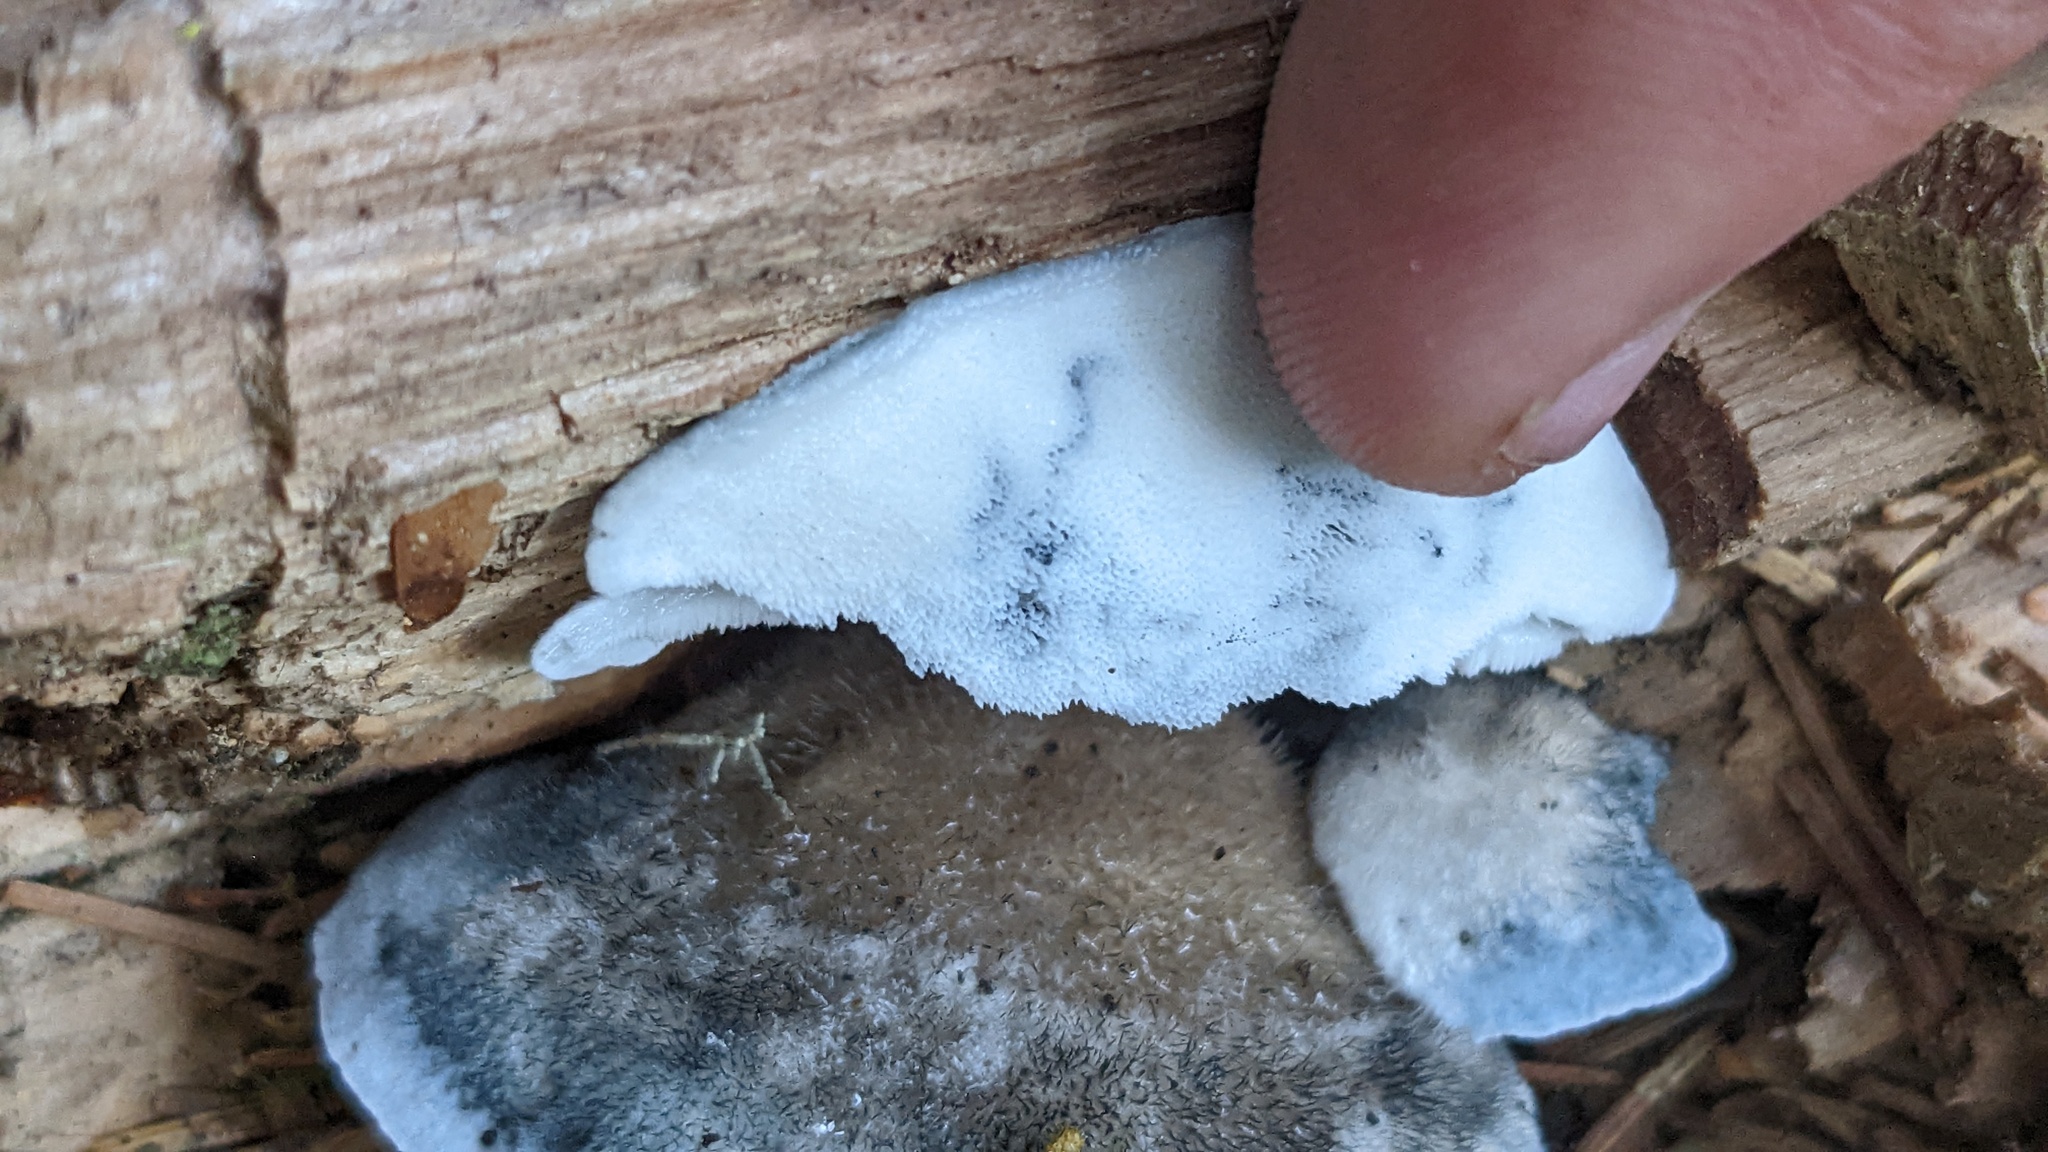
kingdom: Fungi
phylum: Basidiomycota
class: Agaricomycetes
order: Polyporales
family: Polyporaceae
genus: Cyanosporus
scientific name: Cyanosporus caesius
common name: Blue cheese polypore
